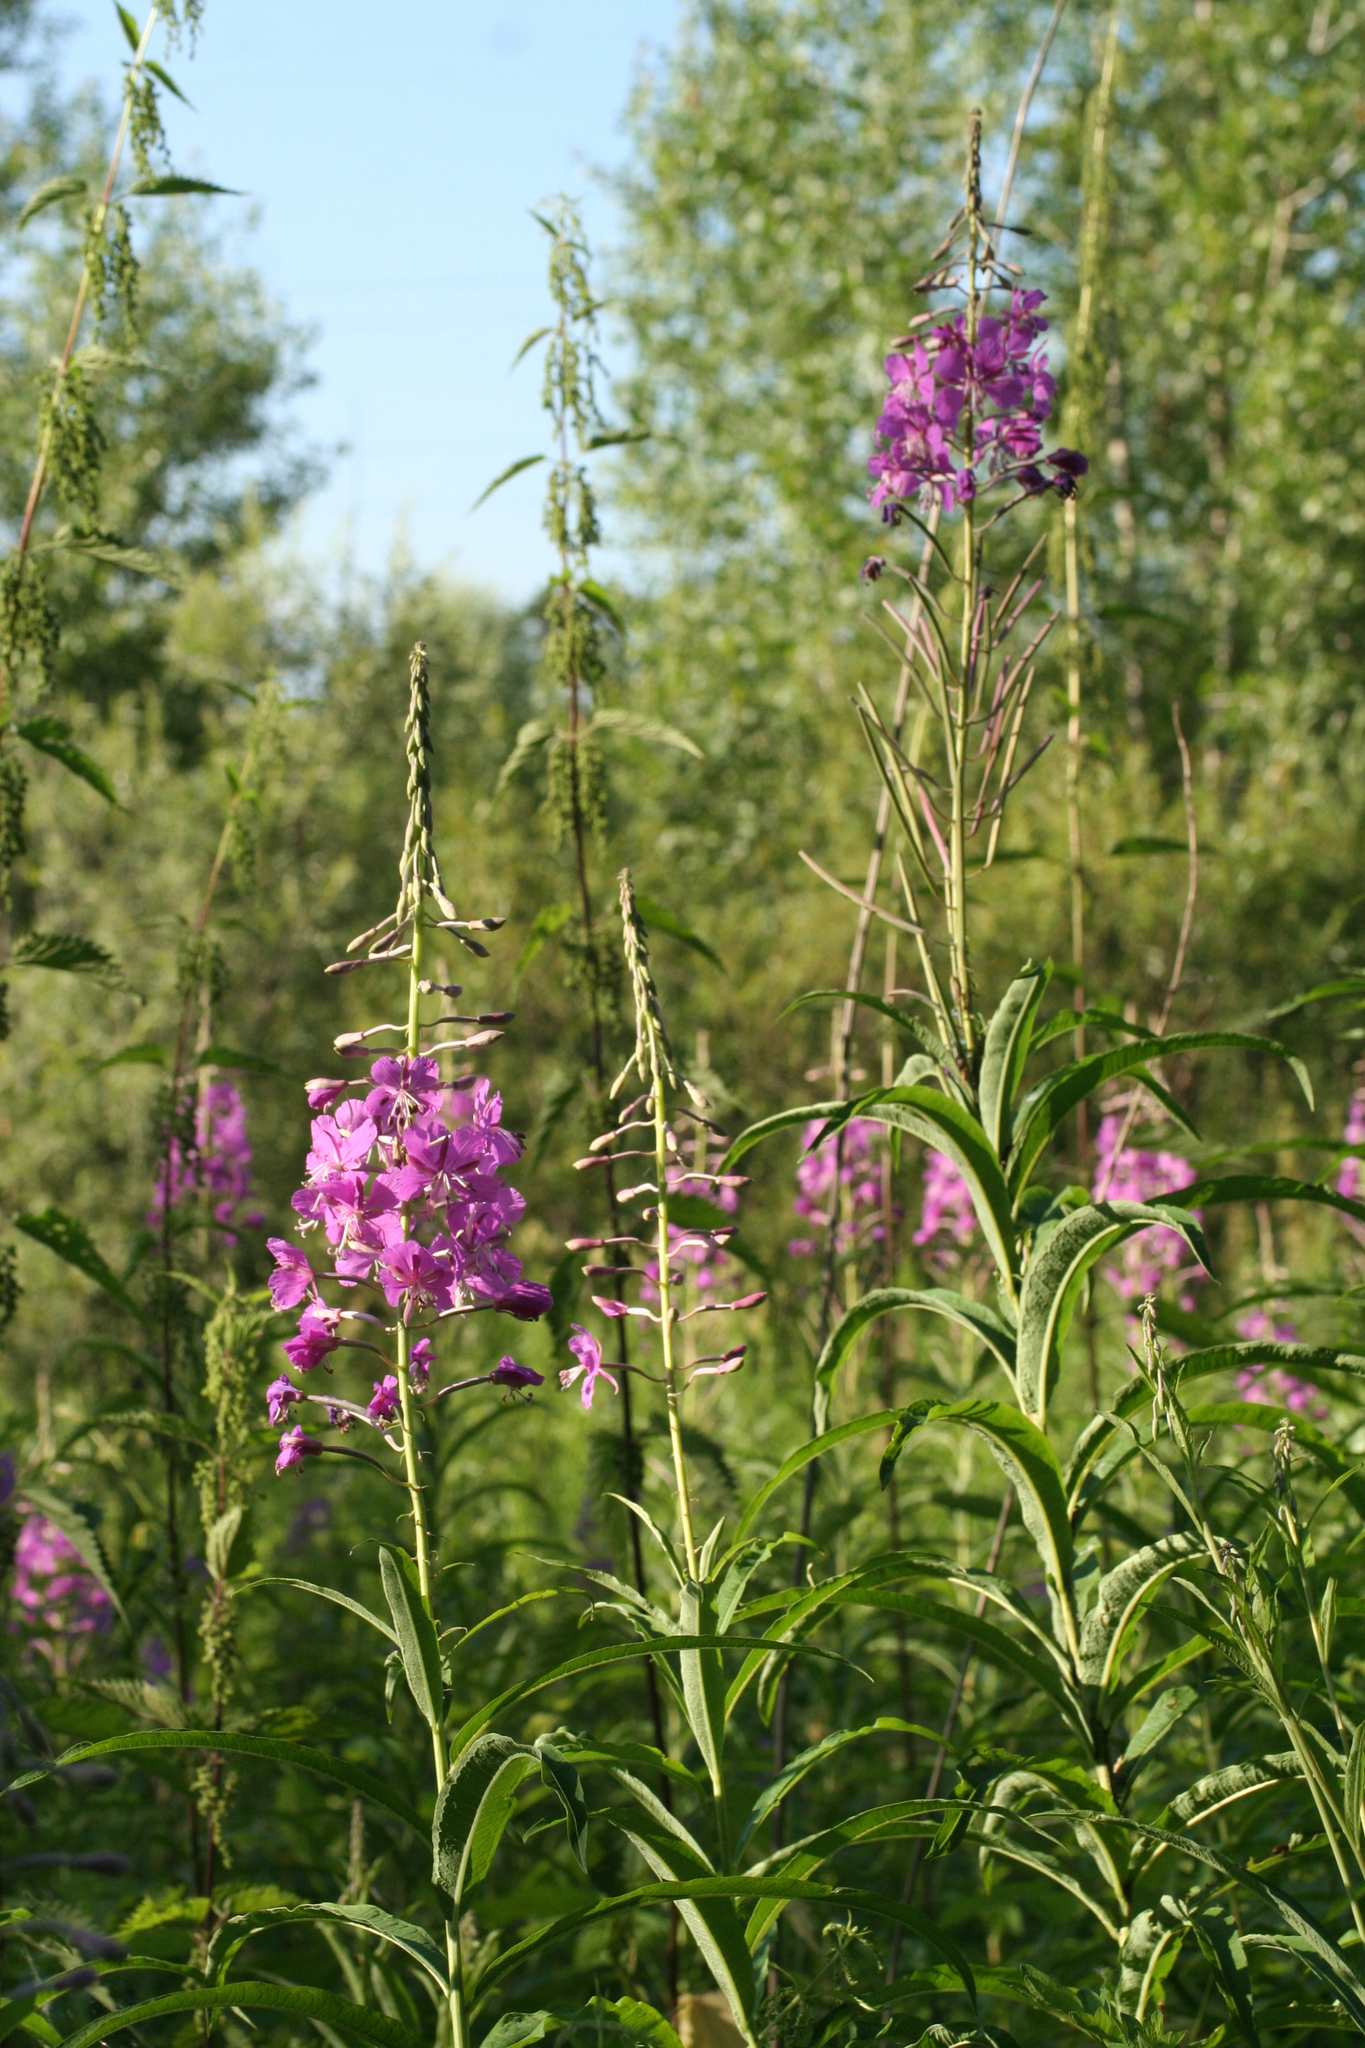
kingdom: Plantae
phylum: Tracheophyta
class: Magnoliopsida
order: Myrtales
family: Onagraceae
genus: Chamaenerion
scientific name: Chamaenerion angustifolium
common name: Fireweed
